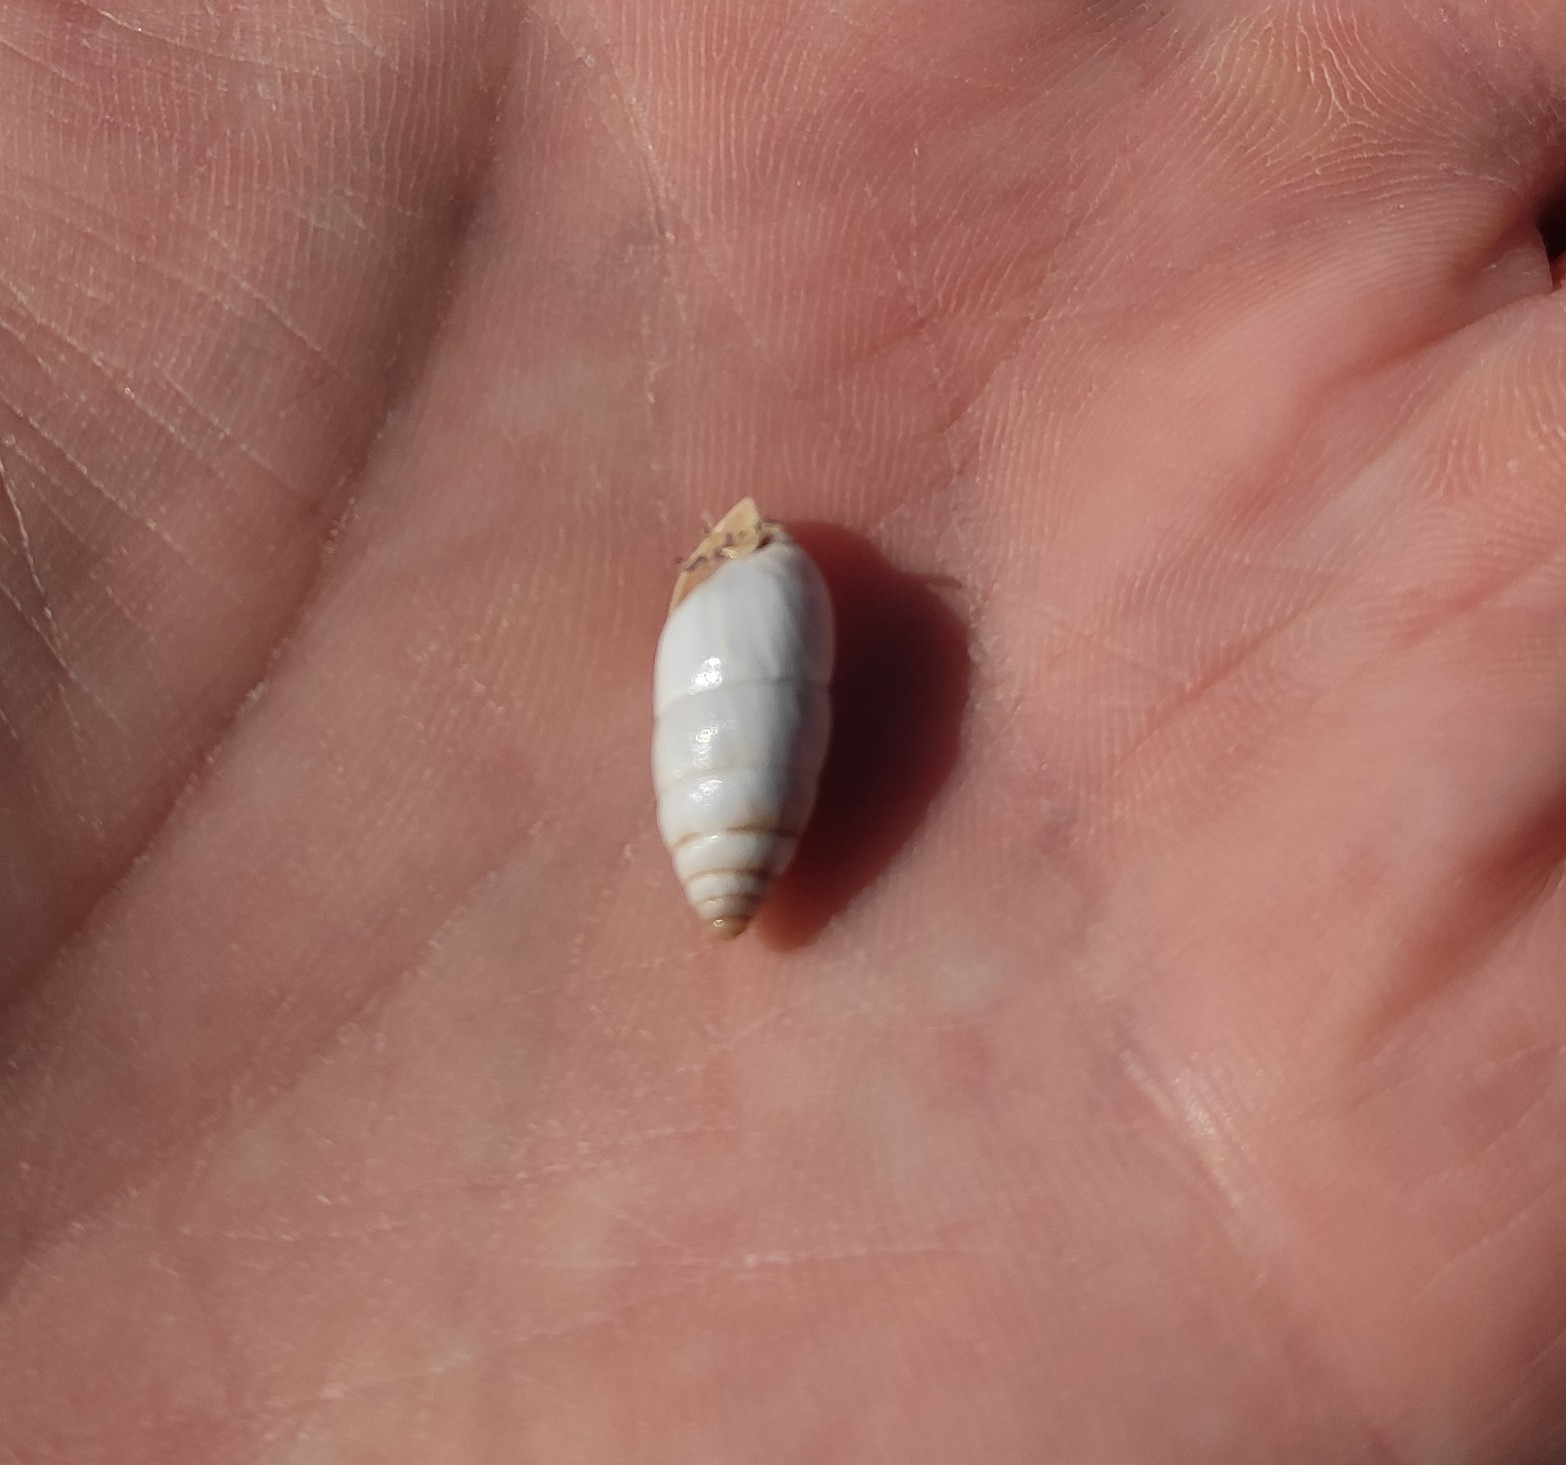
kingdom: Animalia
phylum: Mollusca
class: Gastropoda
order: Stylommatophora
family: Enidae
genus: Brephulopsis
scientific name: Brephulopsis cylindrica
